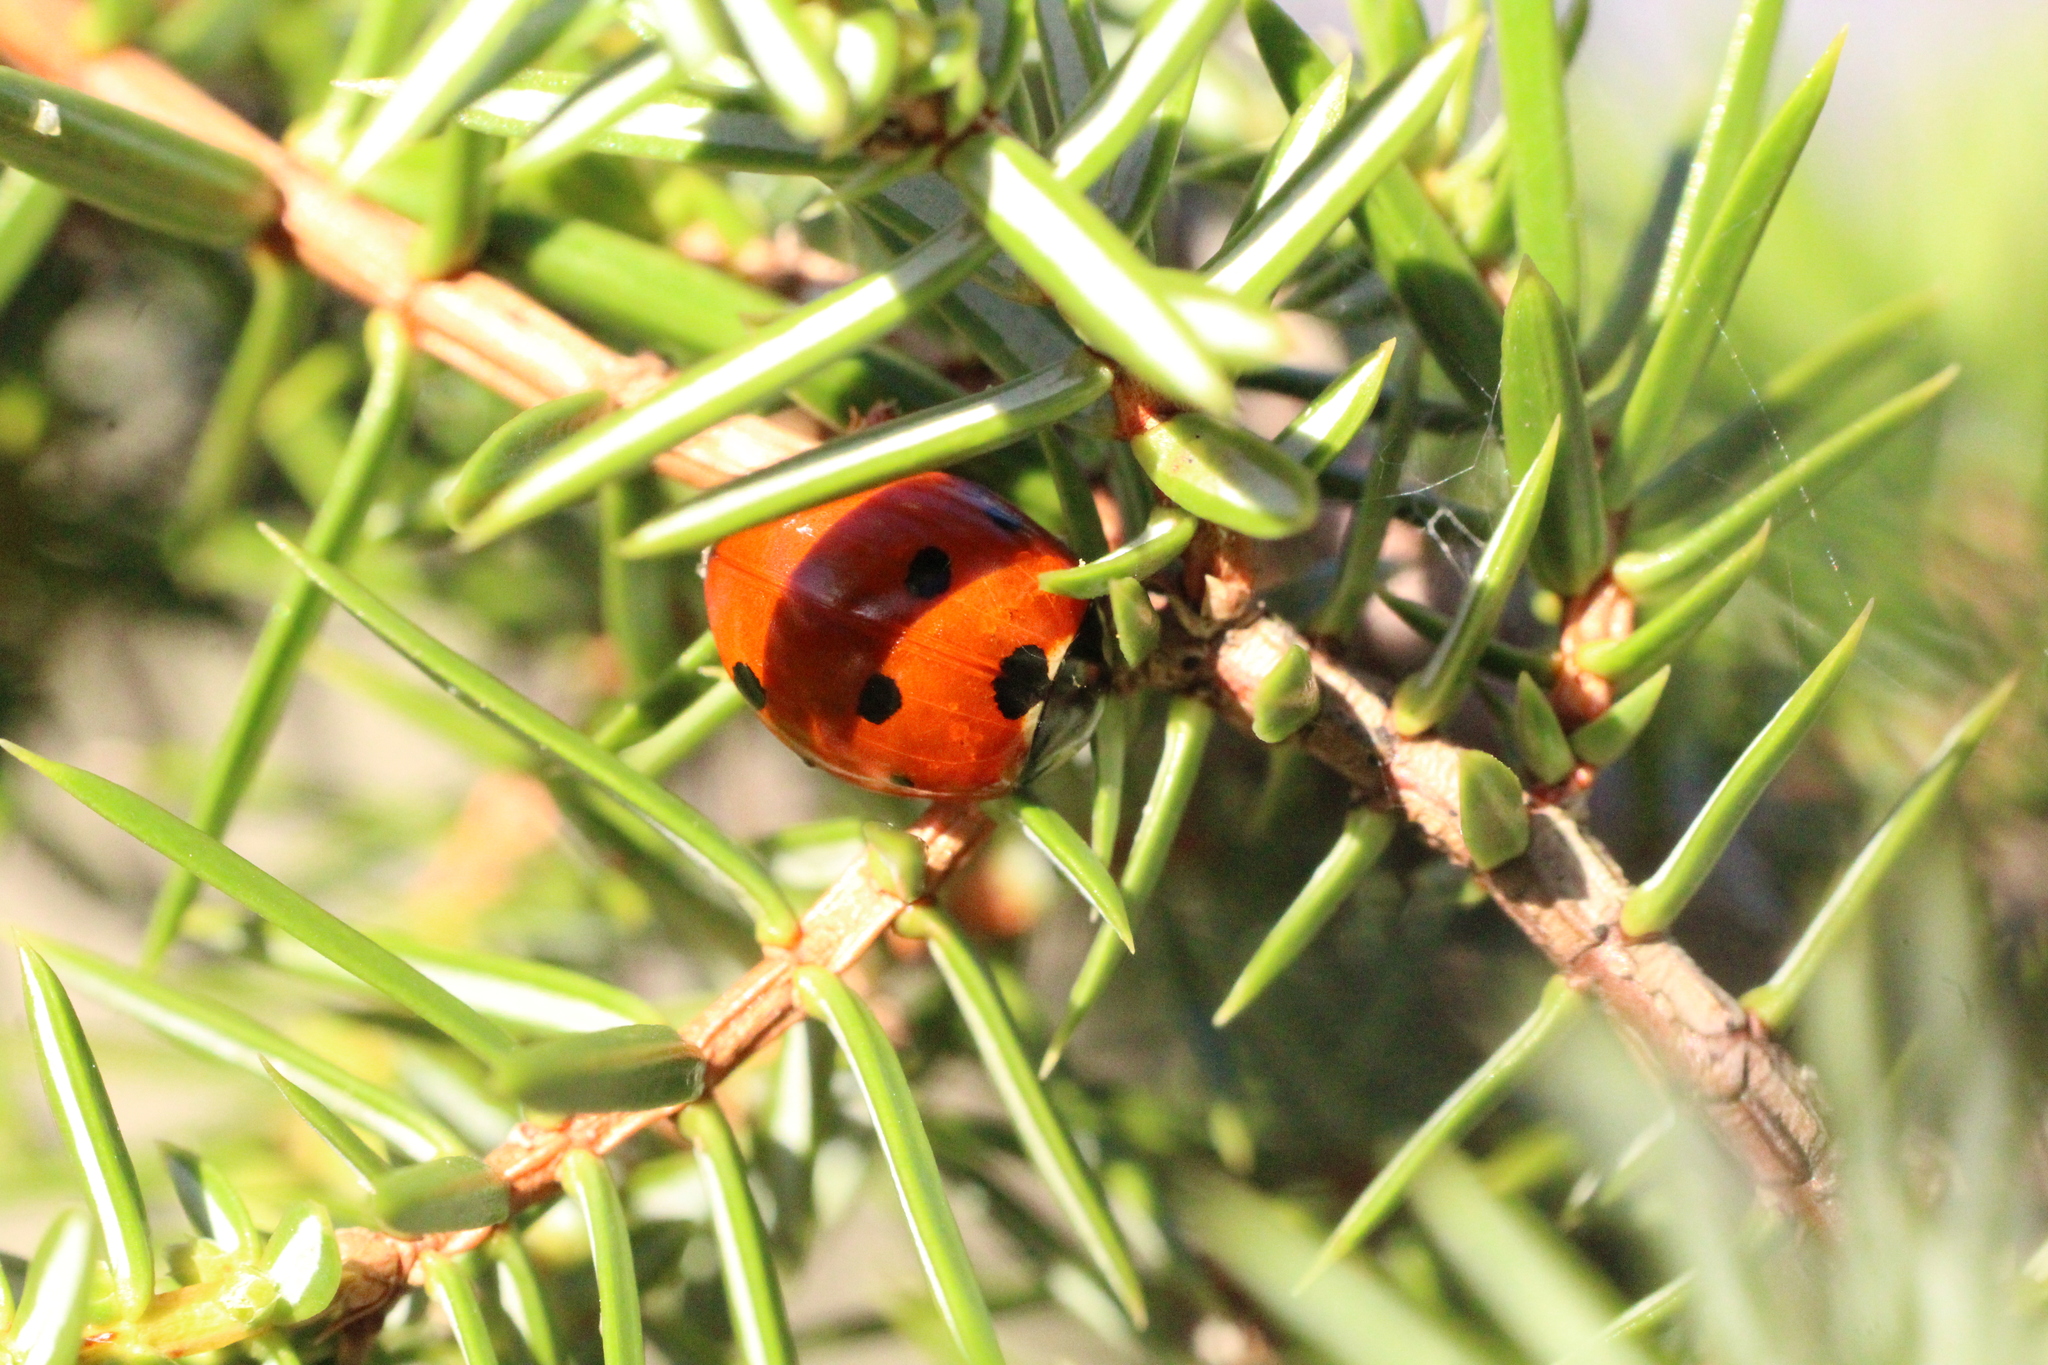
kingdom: Animalia
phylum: Arthropoda
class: Insecta
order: Coleoptera
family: Coccinellidae
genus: Coccinella
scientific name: Coccinella septempunctata
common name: Sevenspotted lady beetle
